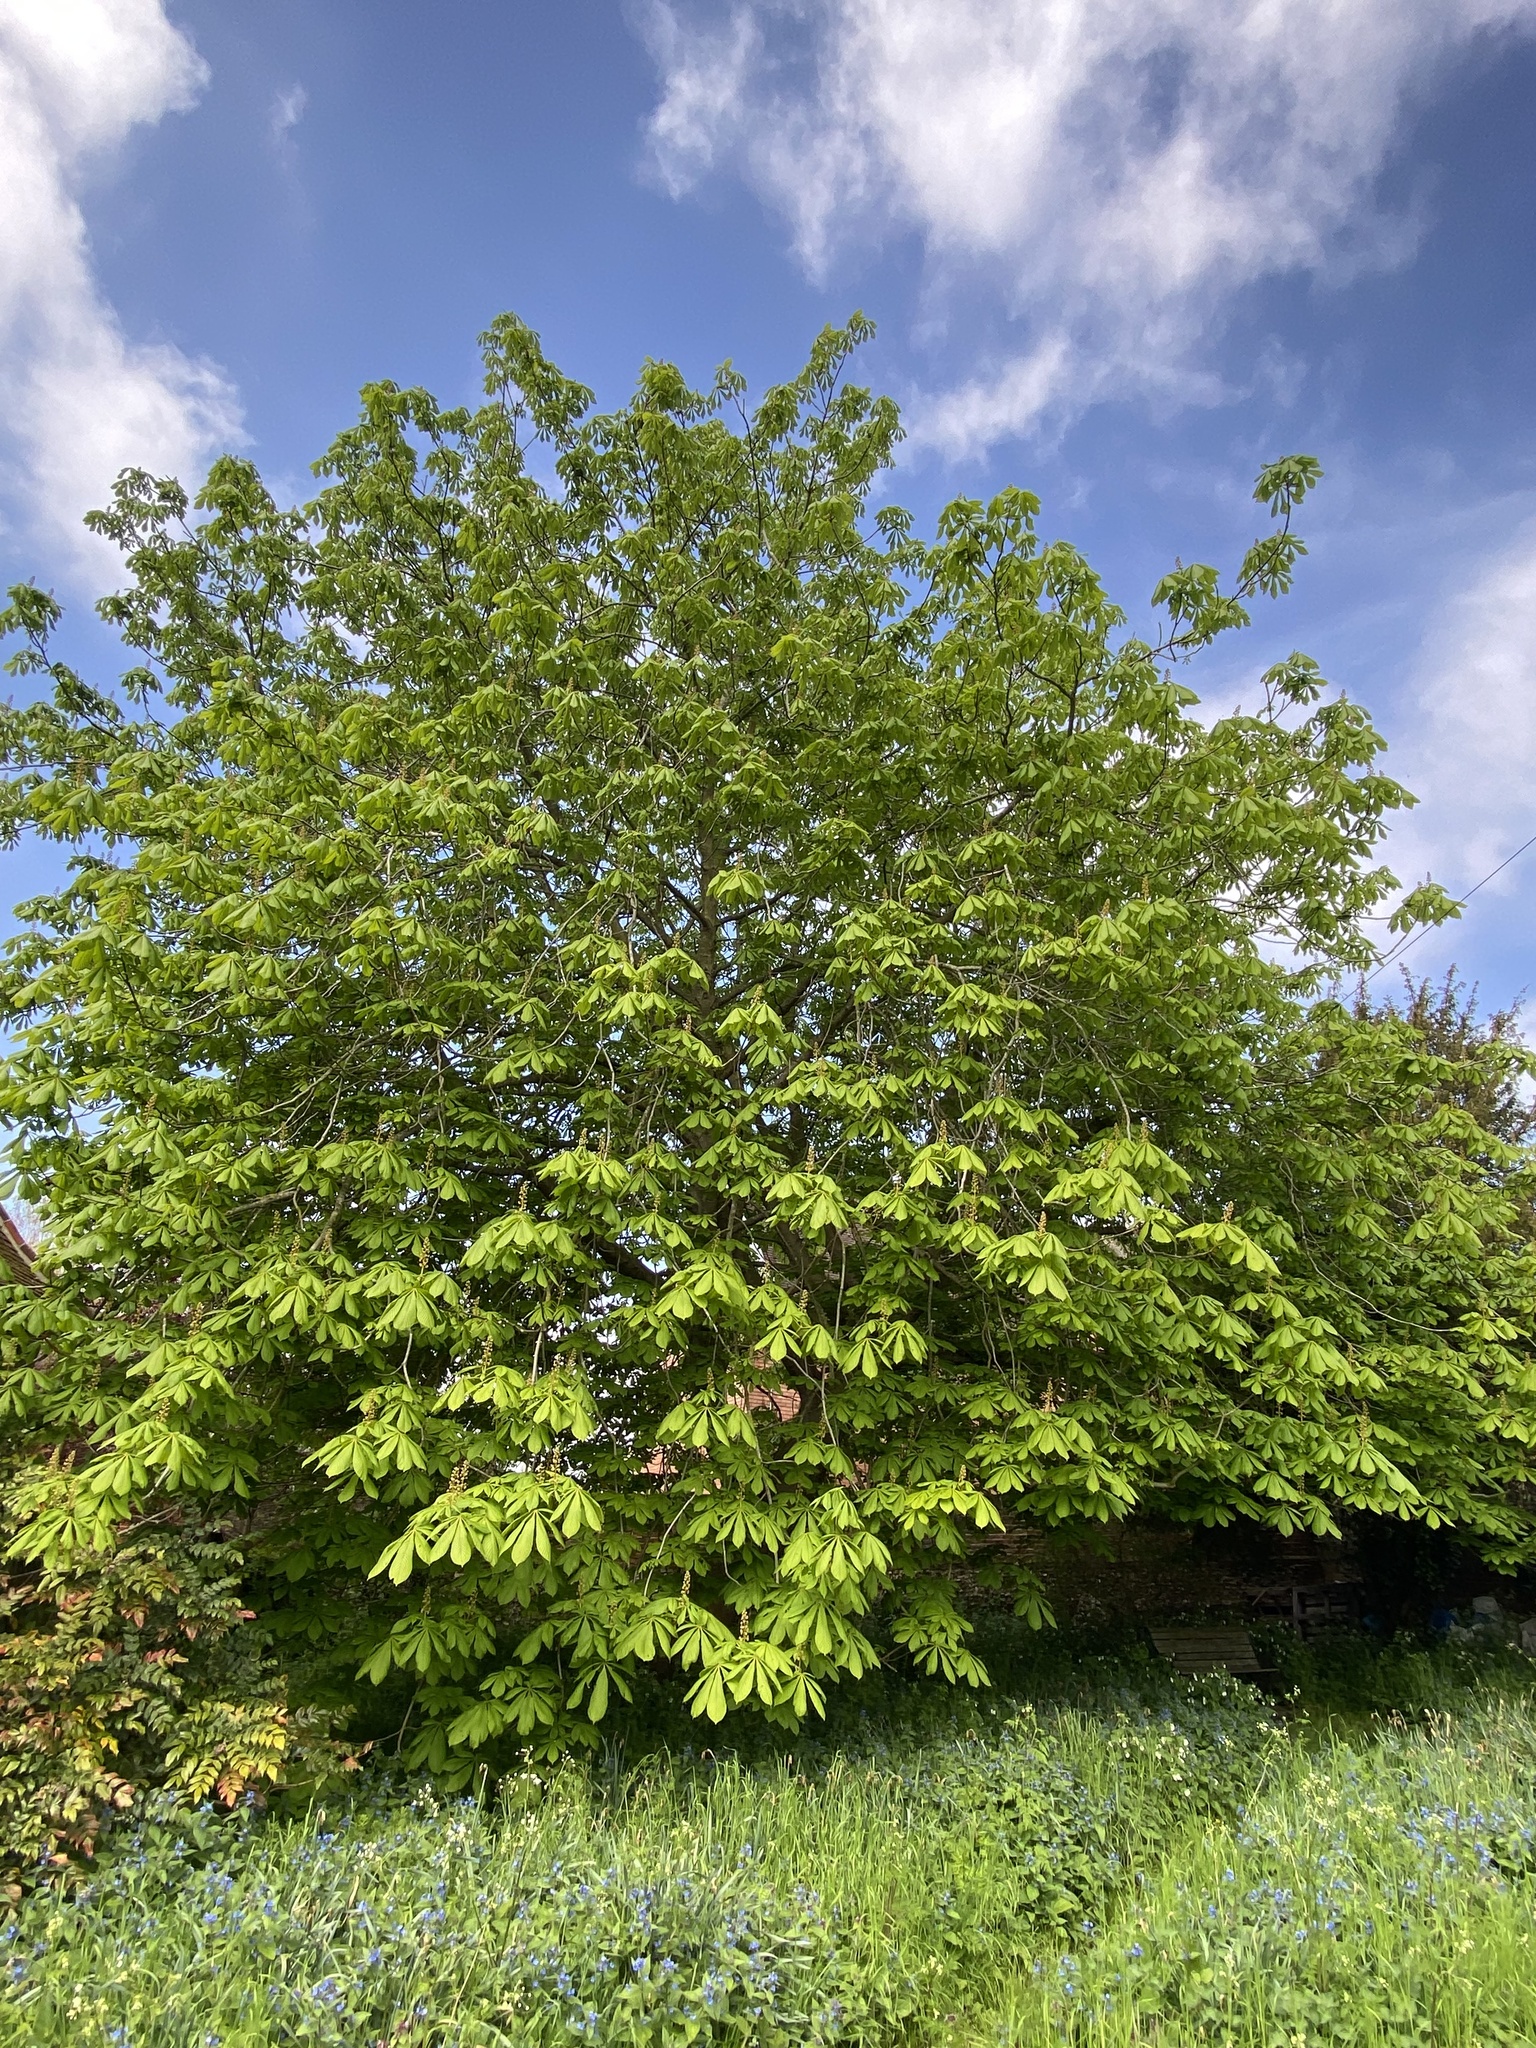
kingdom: Plantae
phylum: Tracheophyta
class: Magnoliopsida
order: Sapindales
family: Sapindaceae
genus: Aesculus
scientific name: Aesculus hippocastanum
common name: Horse-chestnut
